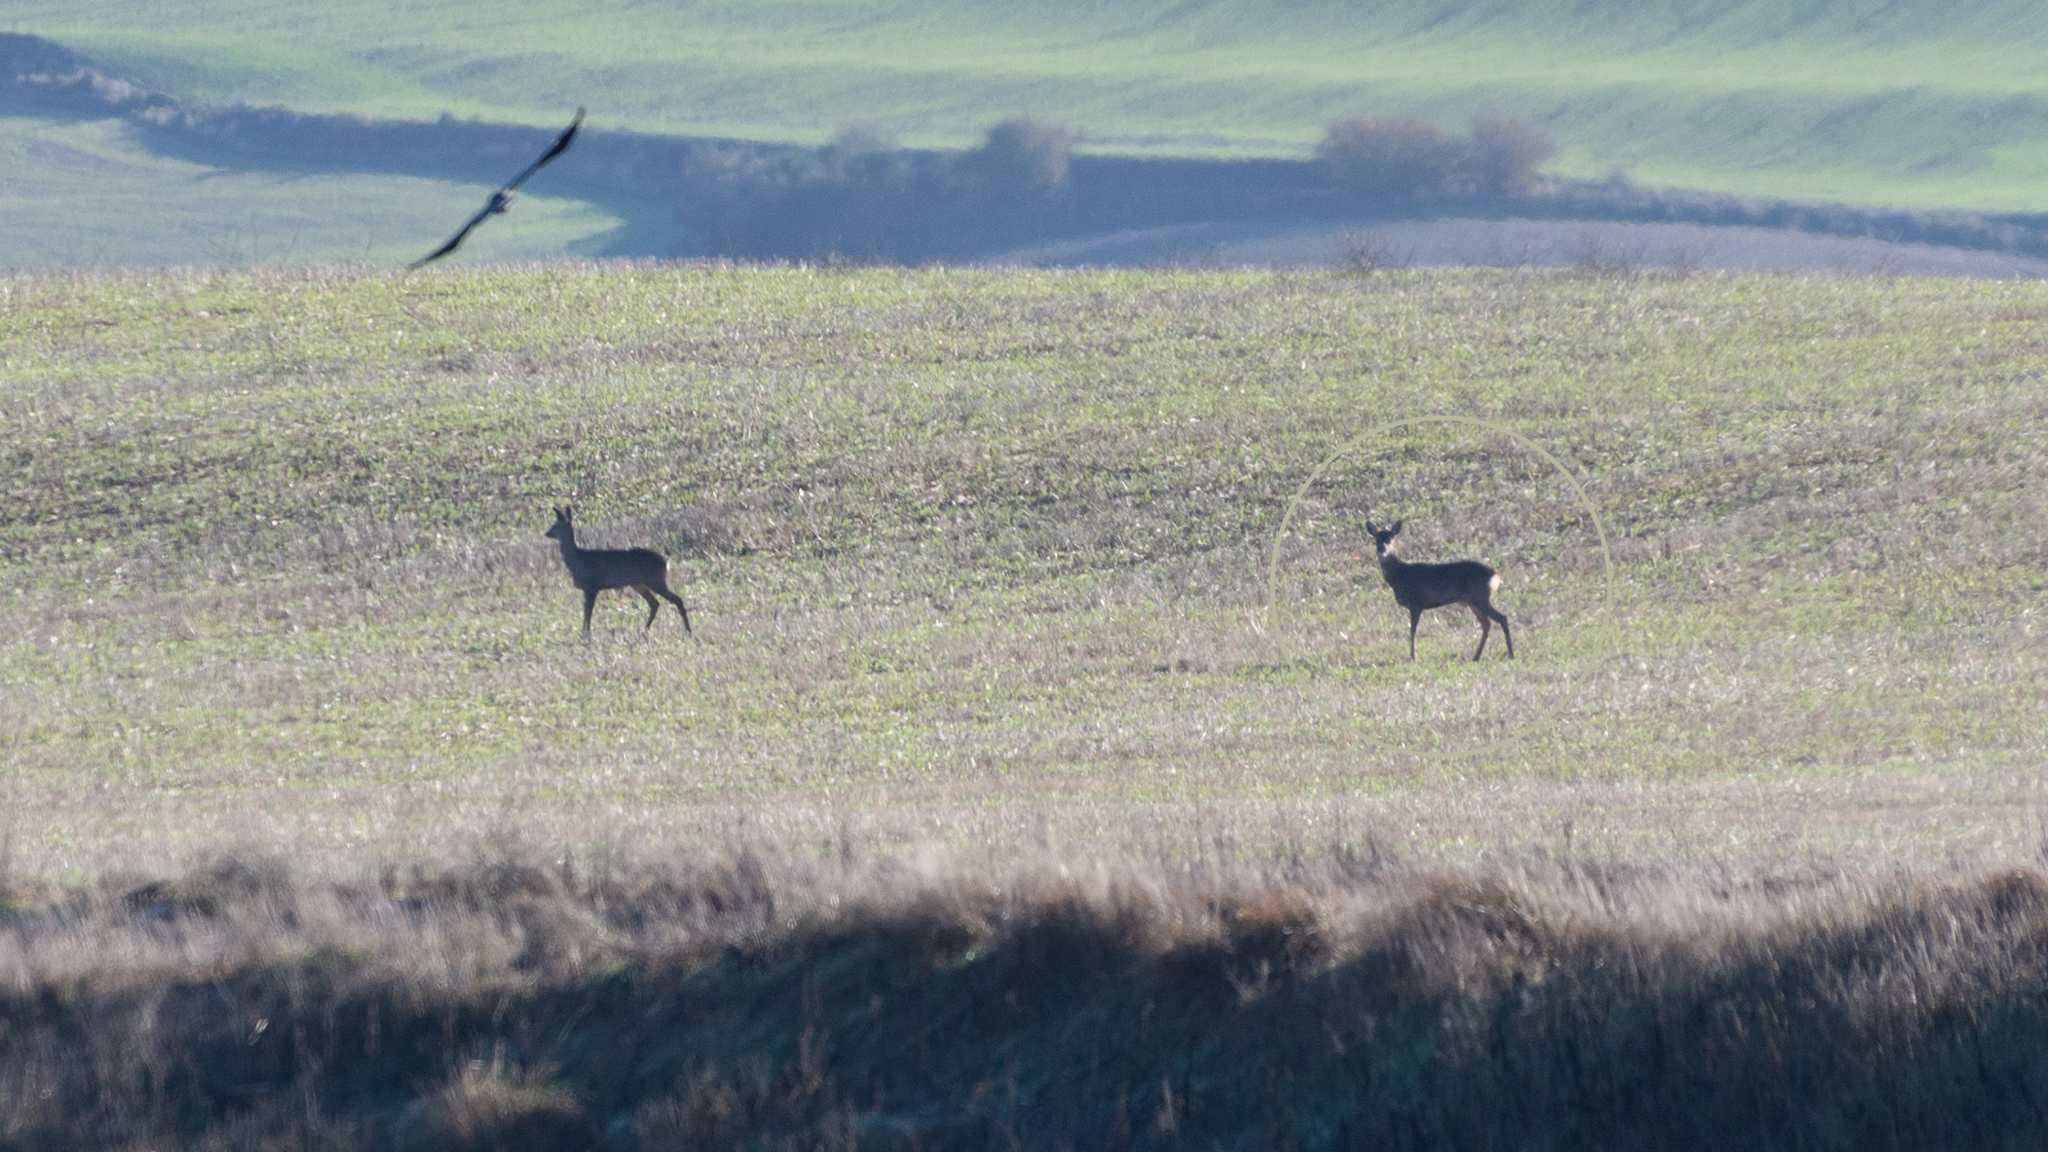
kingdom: Animalia
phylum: Chordata
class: Mammalia
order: Artiodactyla
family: Cervidae
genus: Capreolus
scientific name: Capreolus capreolus
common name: Western roe deer
